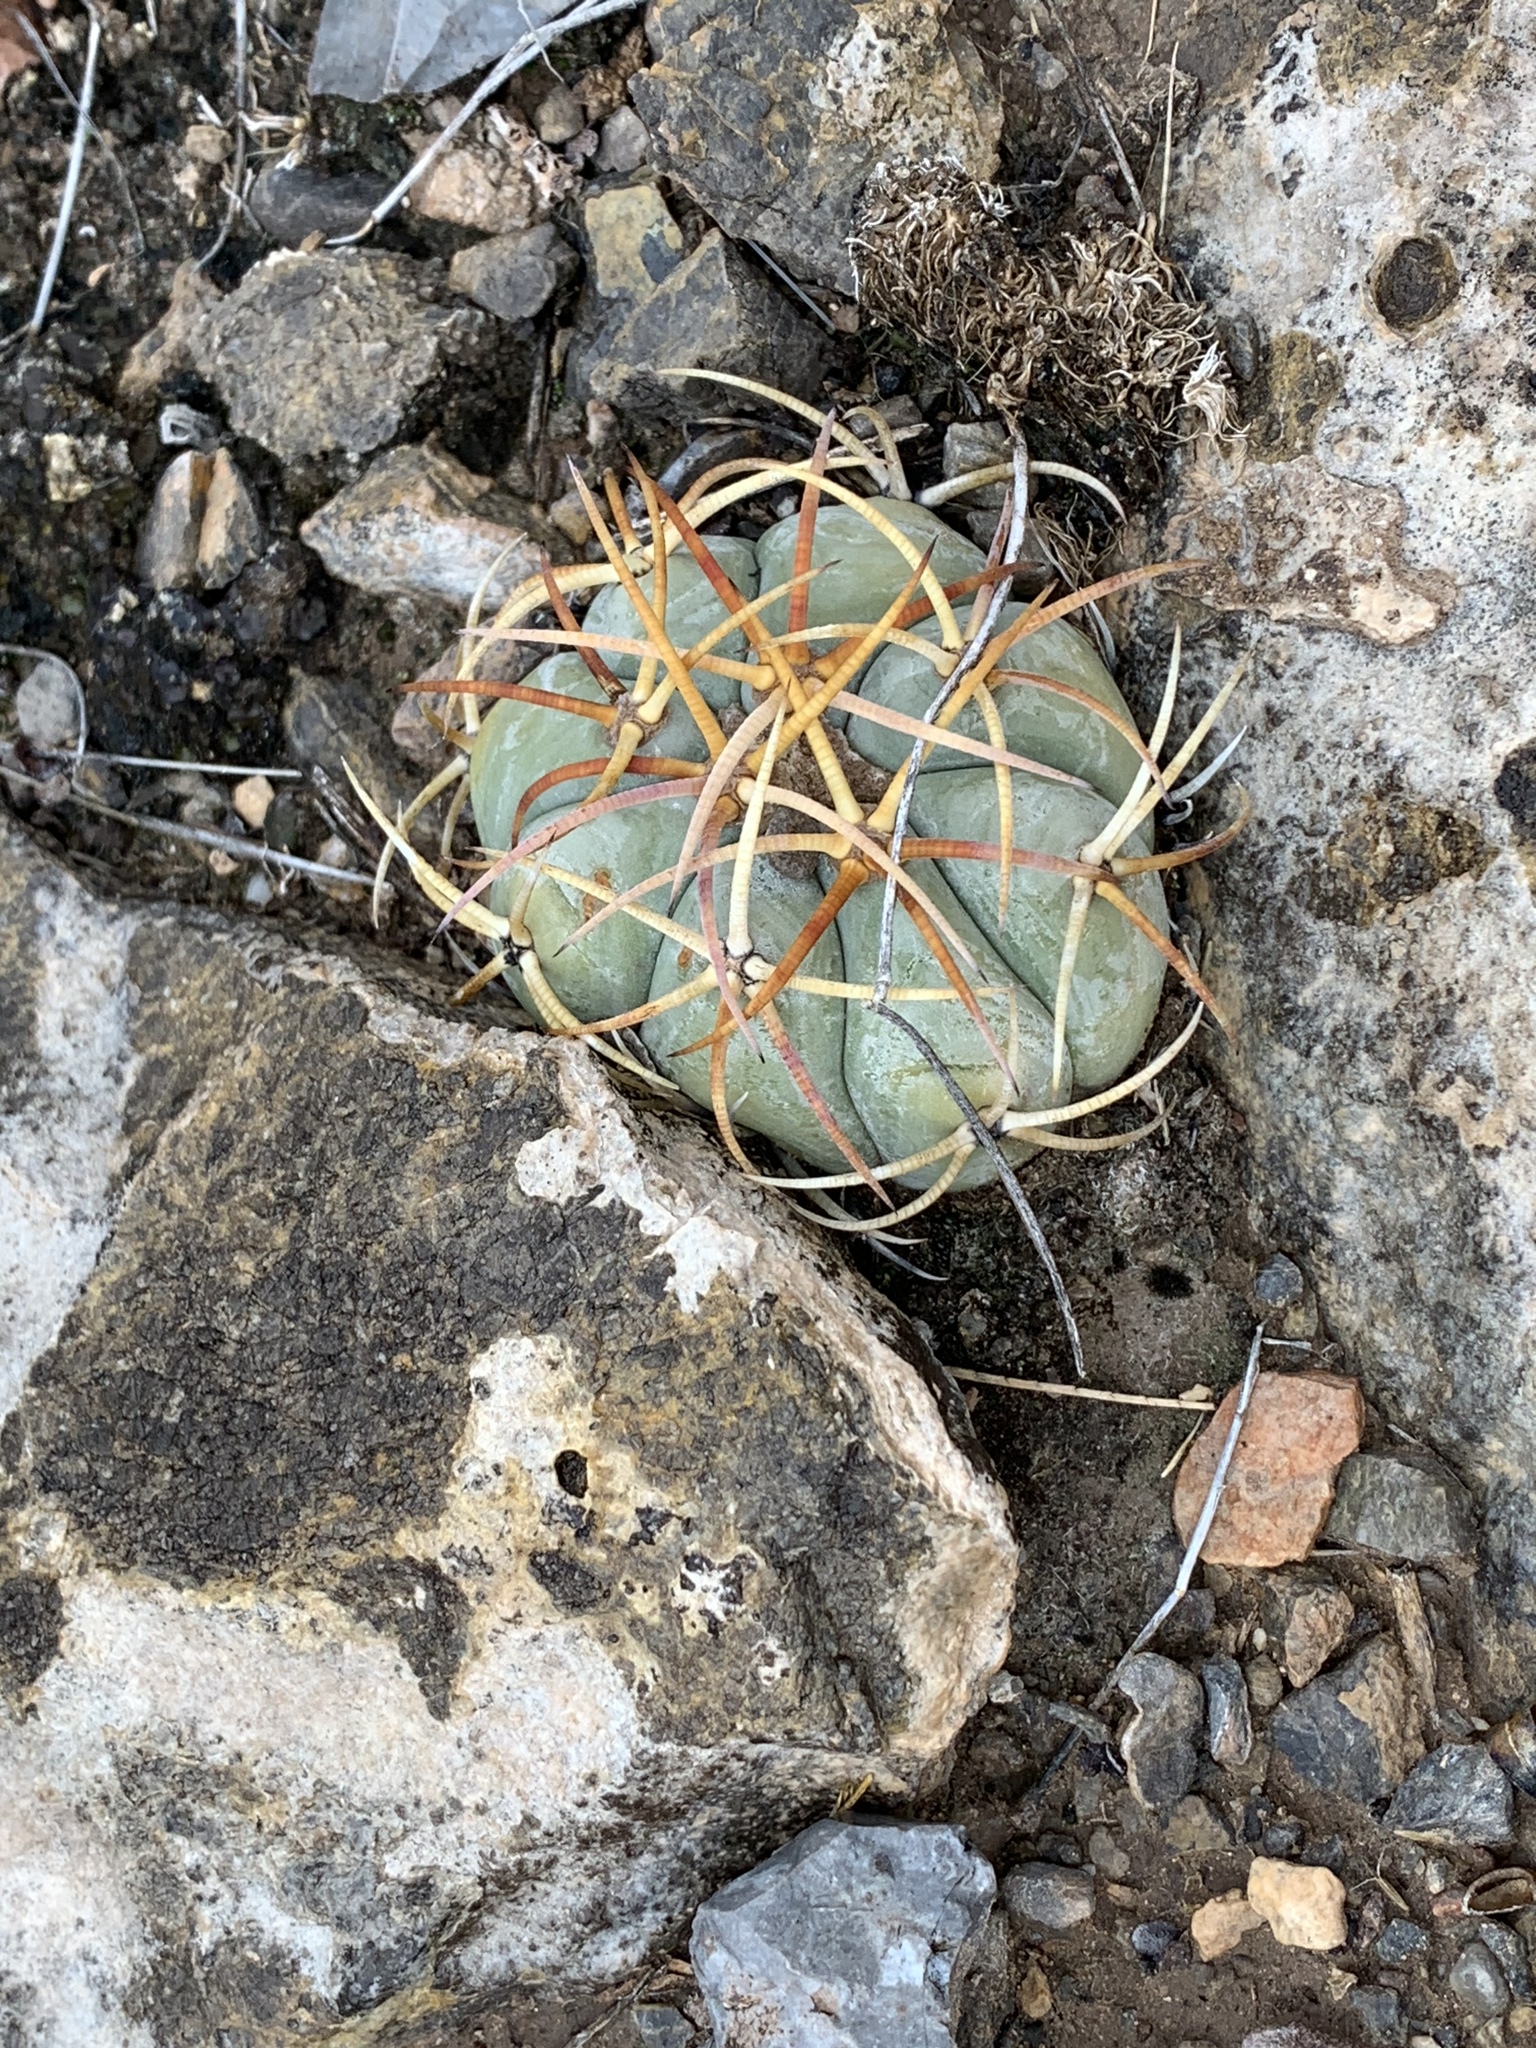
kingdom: Plantae
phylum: Tracheophyta
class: Magnoliopsida
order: Caryophyllales
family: Cactaceae
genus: Echinocactus
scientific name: Echinocactus horizonthalonius
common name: Devilshead
